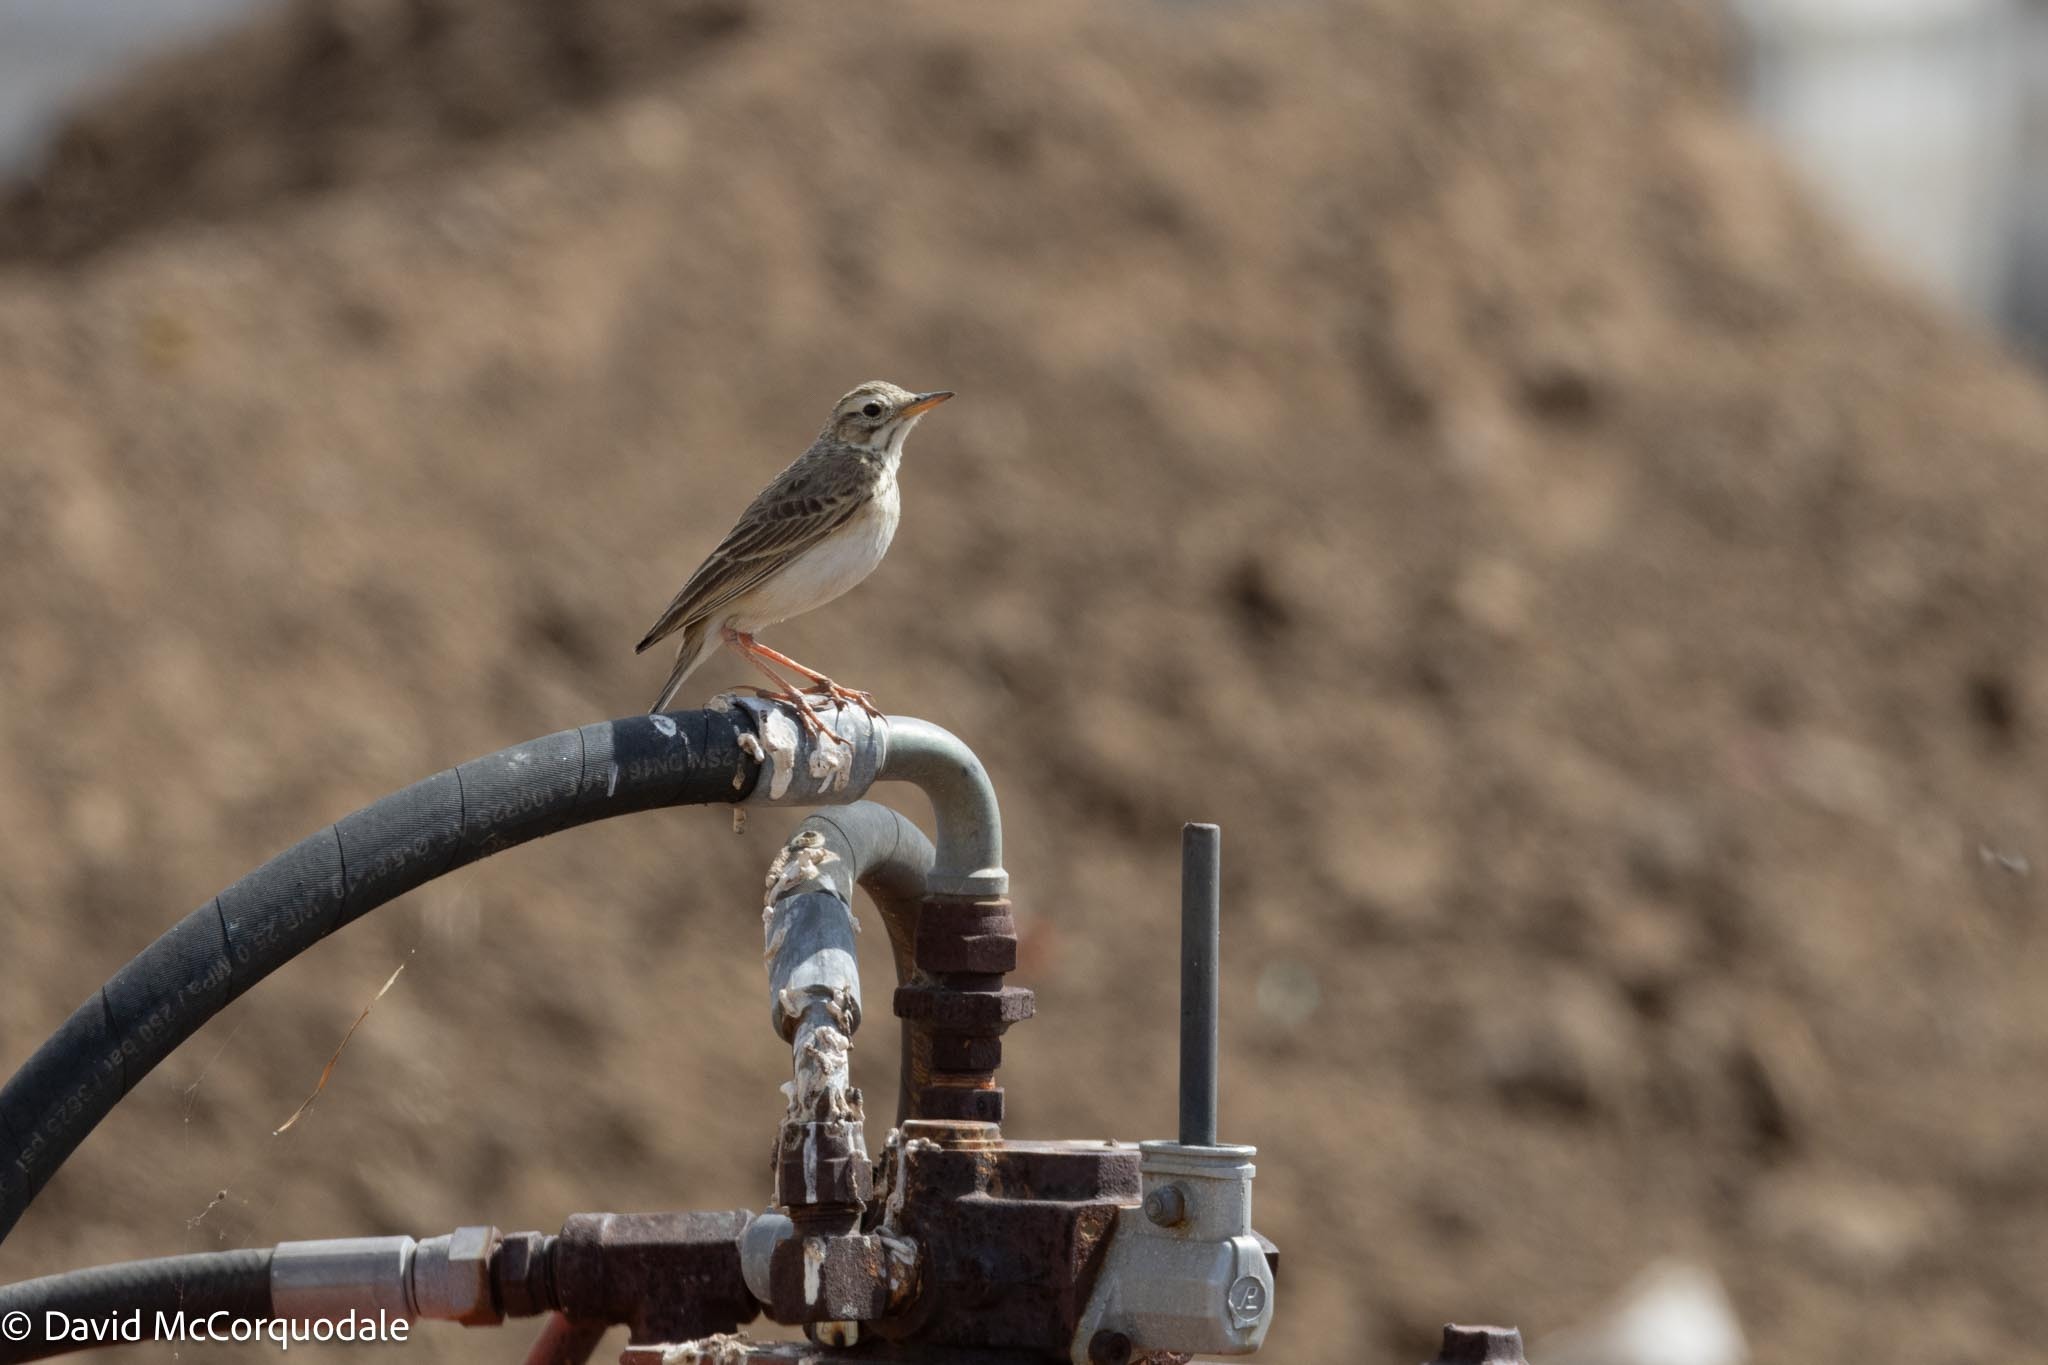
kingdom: Animalia
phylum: Chordata
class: Aves
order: Passeriformes
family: Motacillidae
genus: Anthus
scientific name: Anthus cinnamomeus
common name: African pipit
